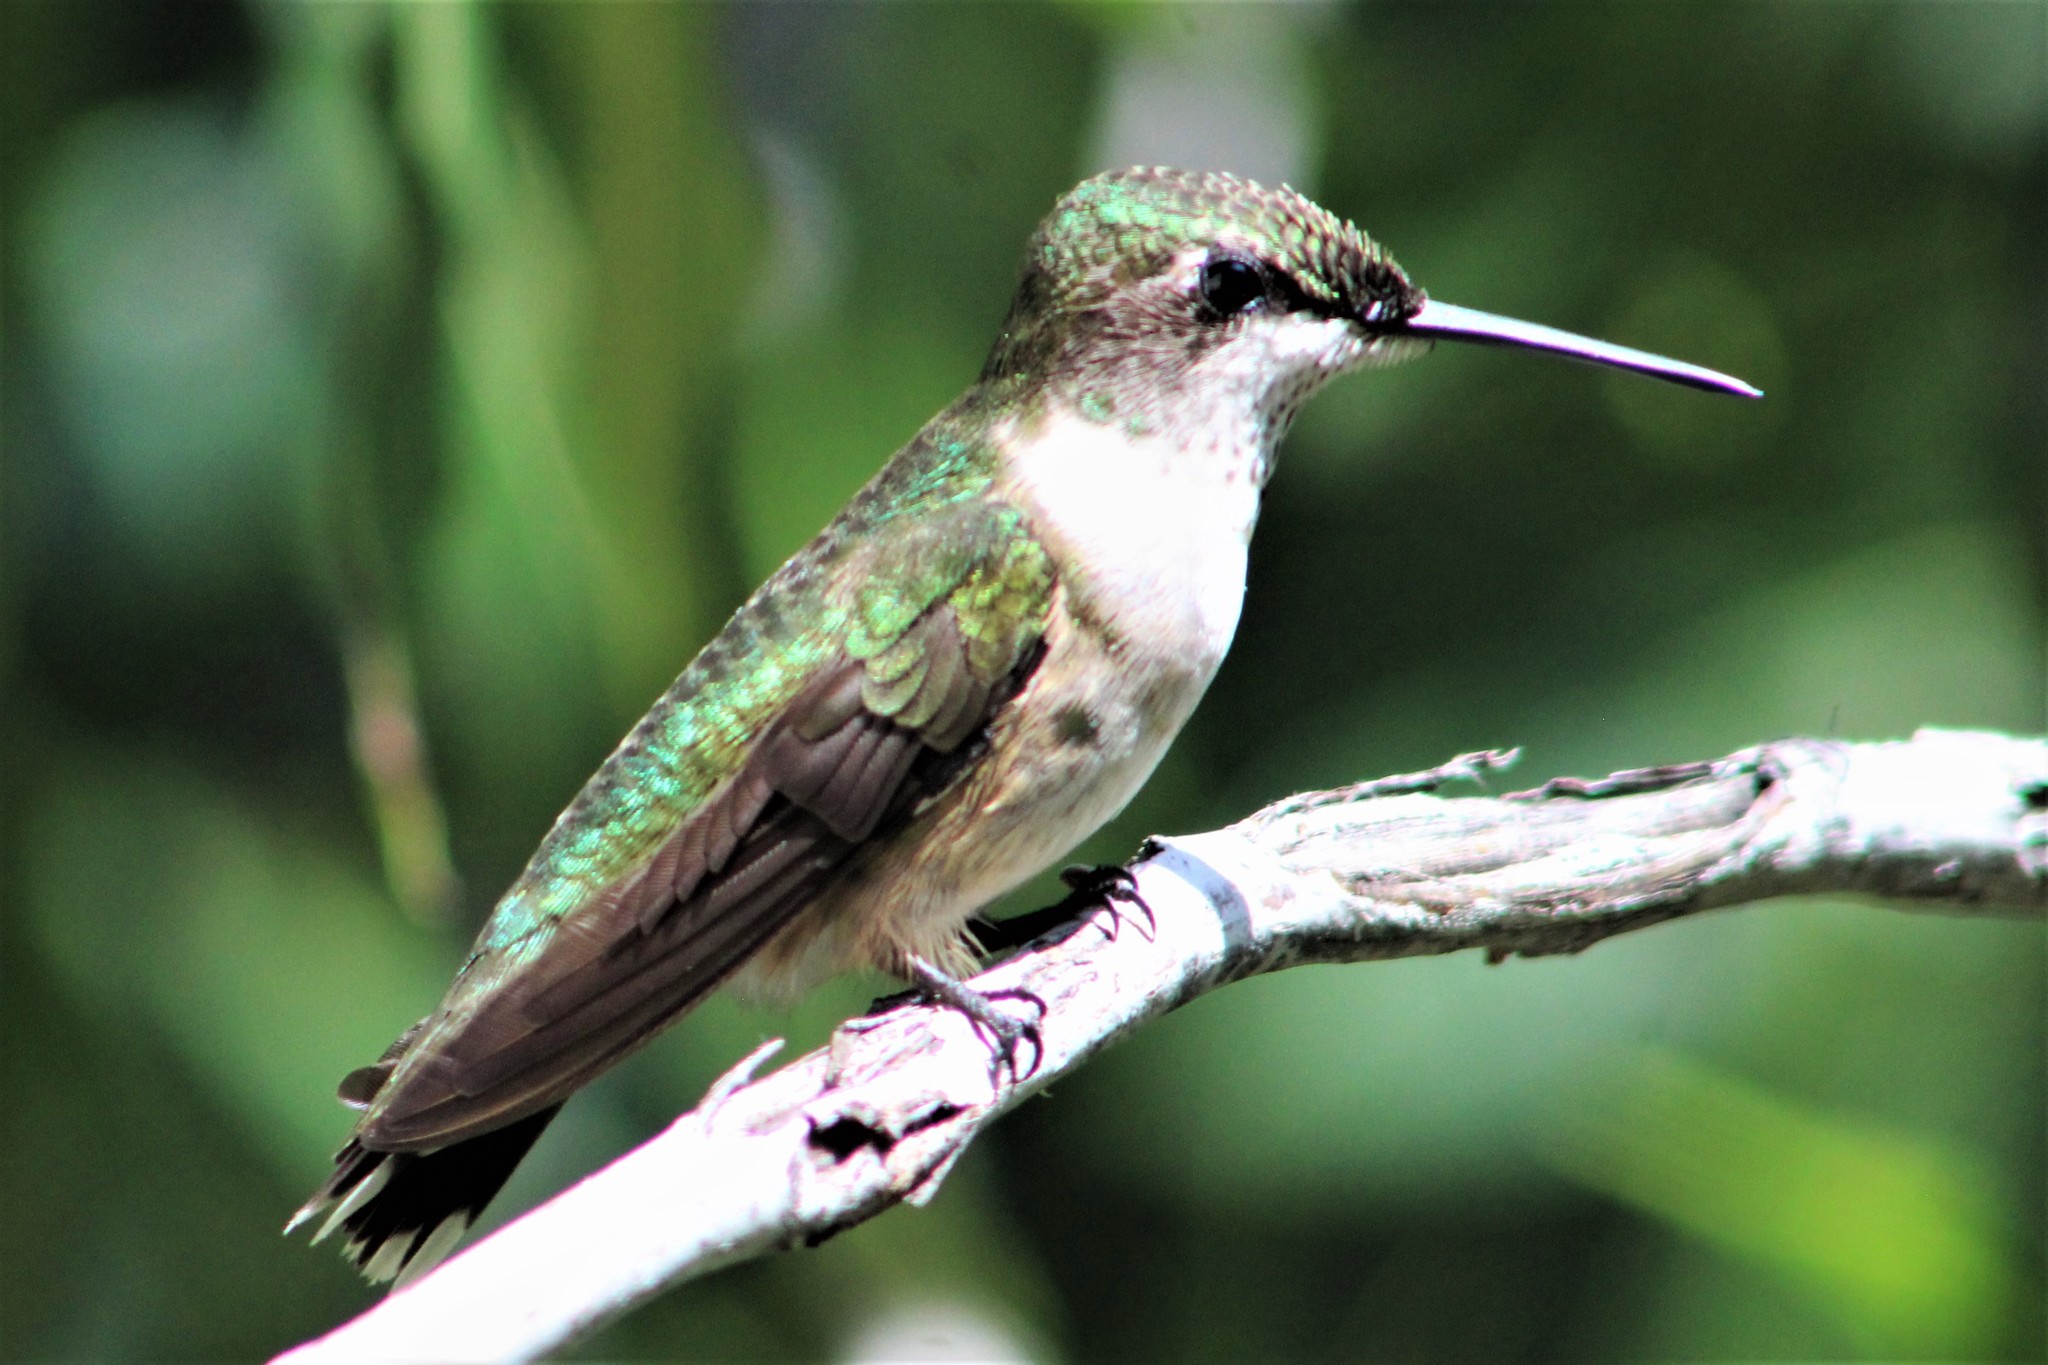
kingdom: Animalia
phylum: Chordata
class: Aves
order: Apodiformes
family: Trochilidae
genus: Archilochus
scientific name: Archilochus colubris
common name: Ruby-throated hummingbird
